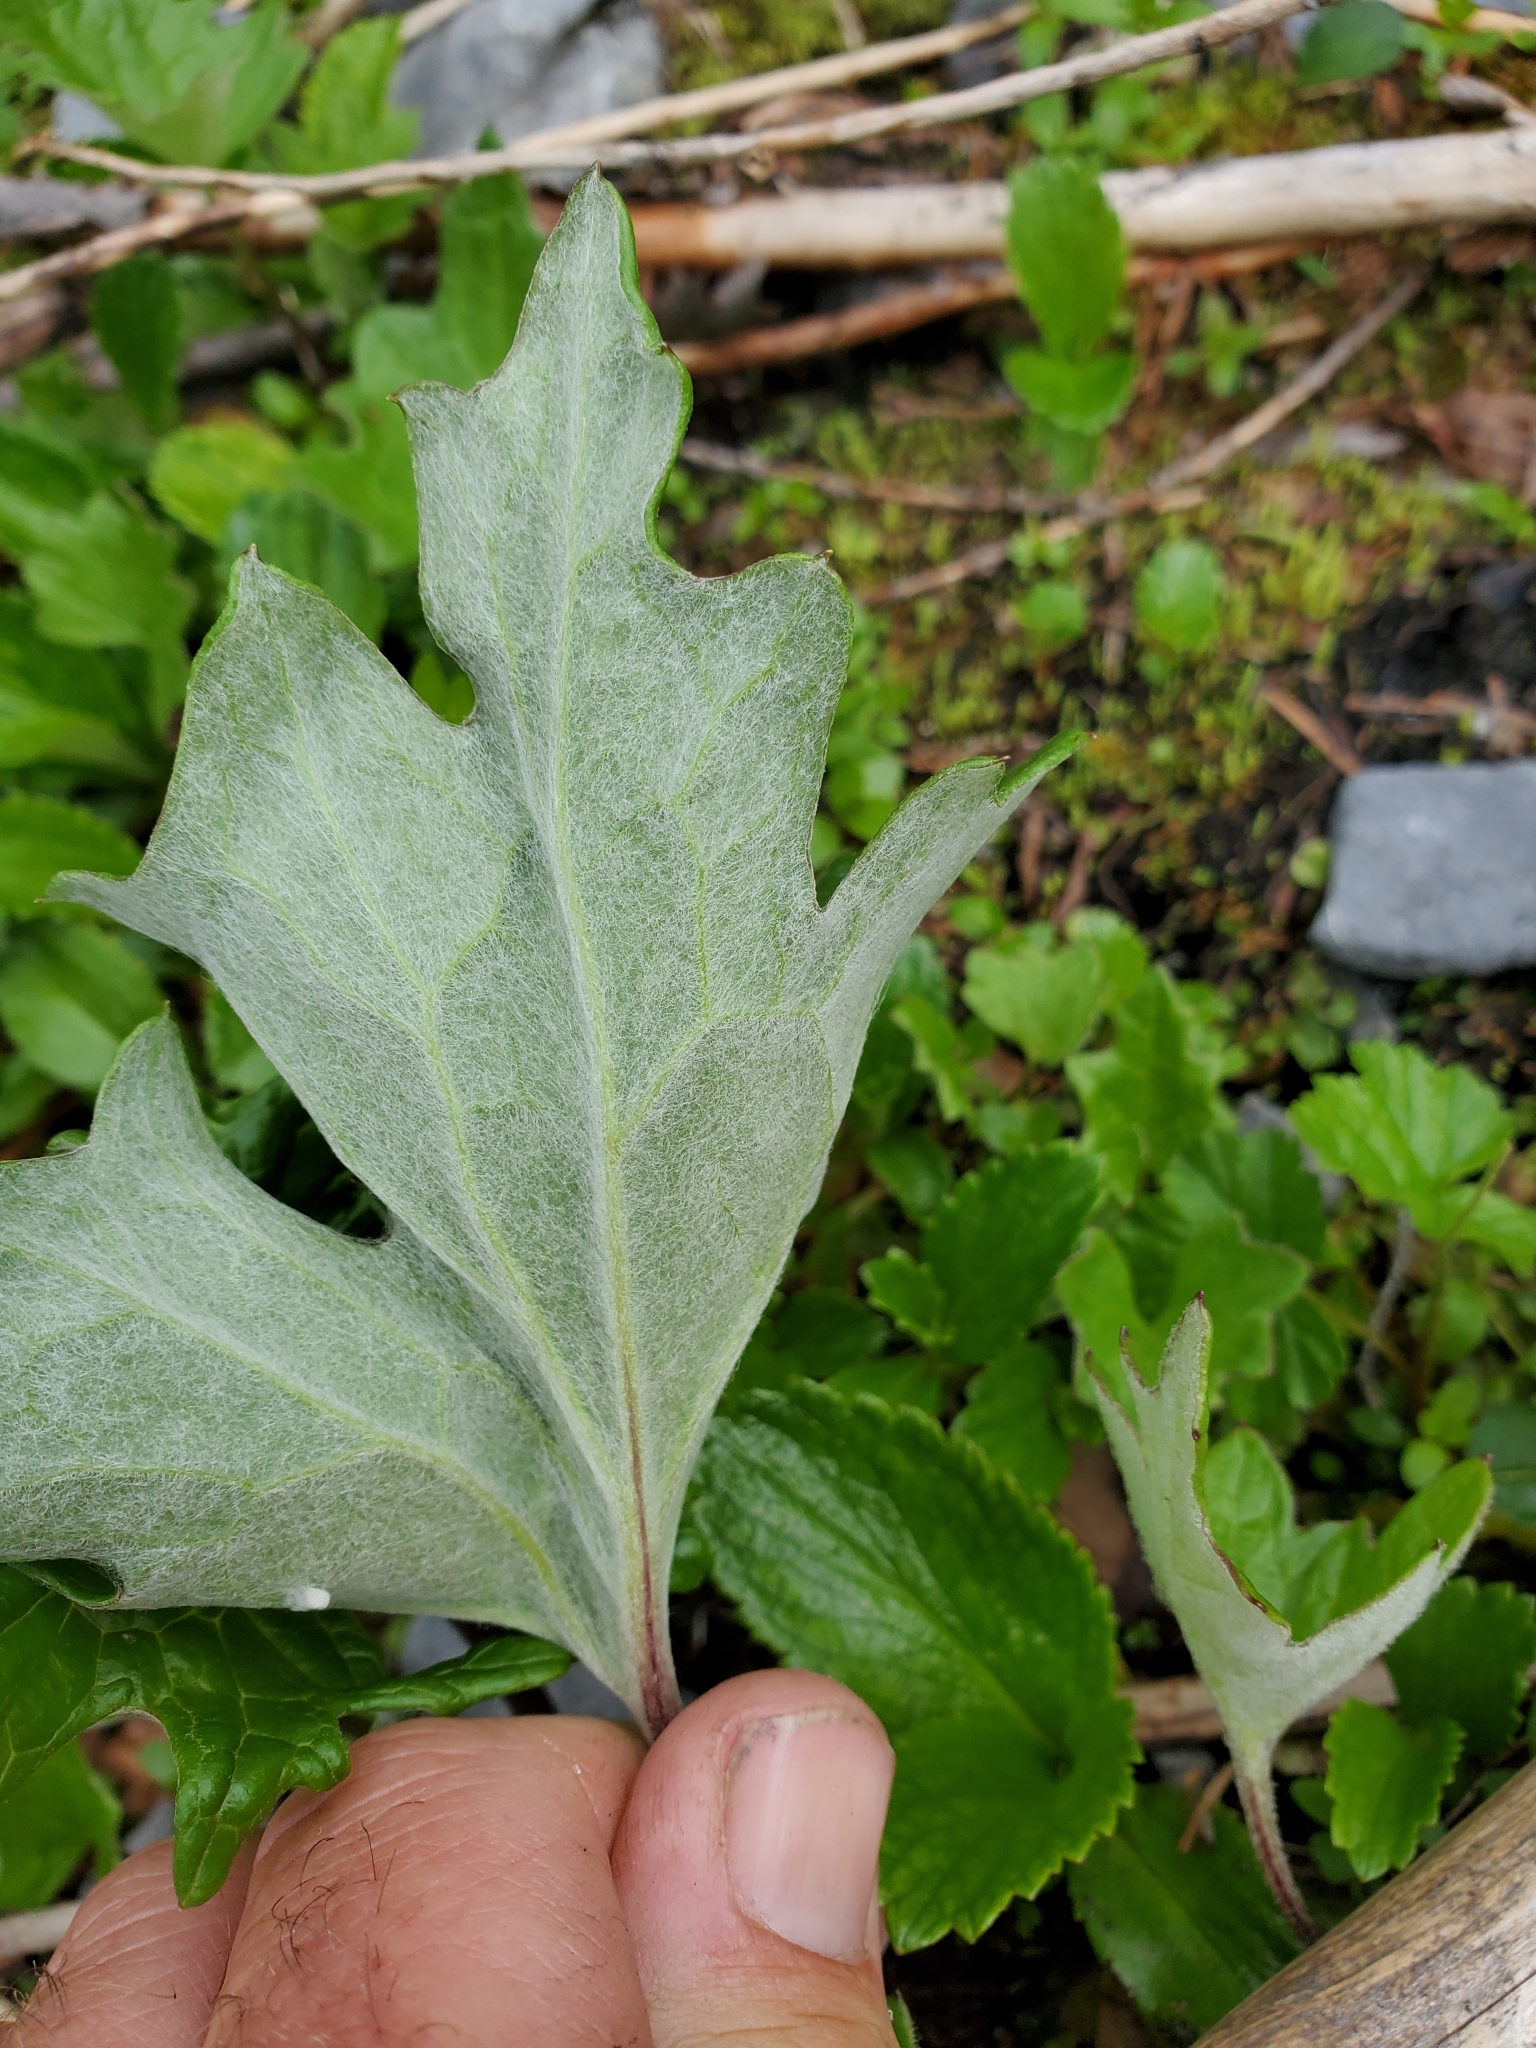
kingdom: Plantae
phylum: Tracheophyta
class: Magnoliopsida
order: Asterales
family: Asteraceae
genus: Petasites
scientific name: Petasites frigidus
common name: Arctic butterbur
